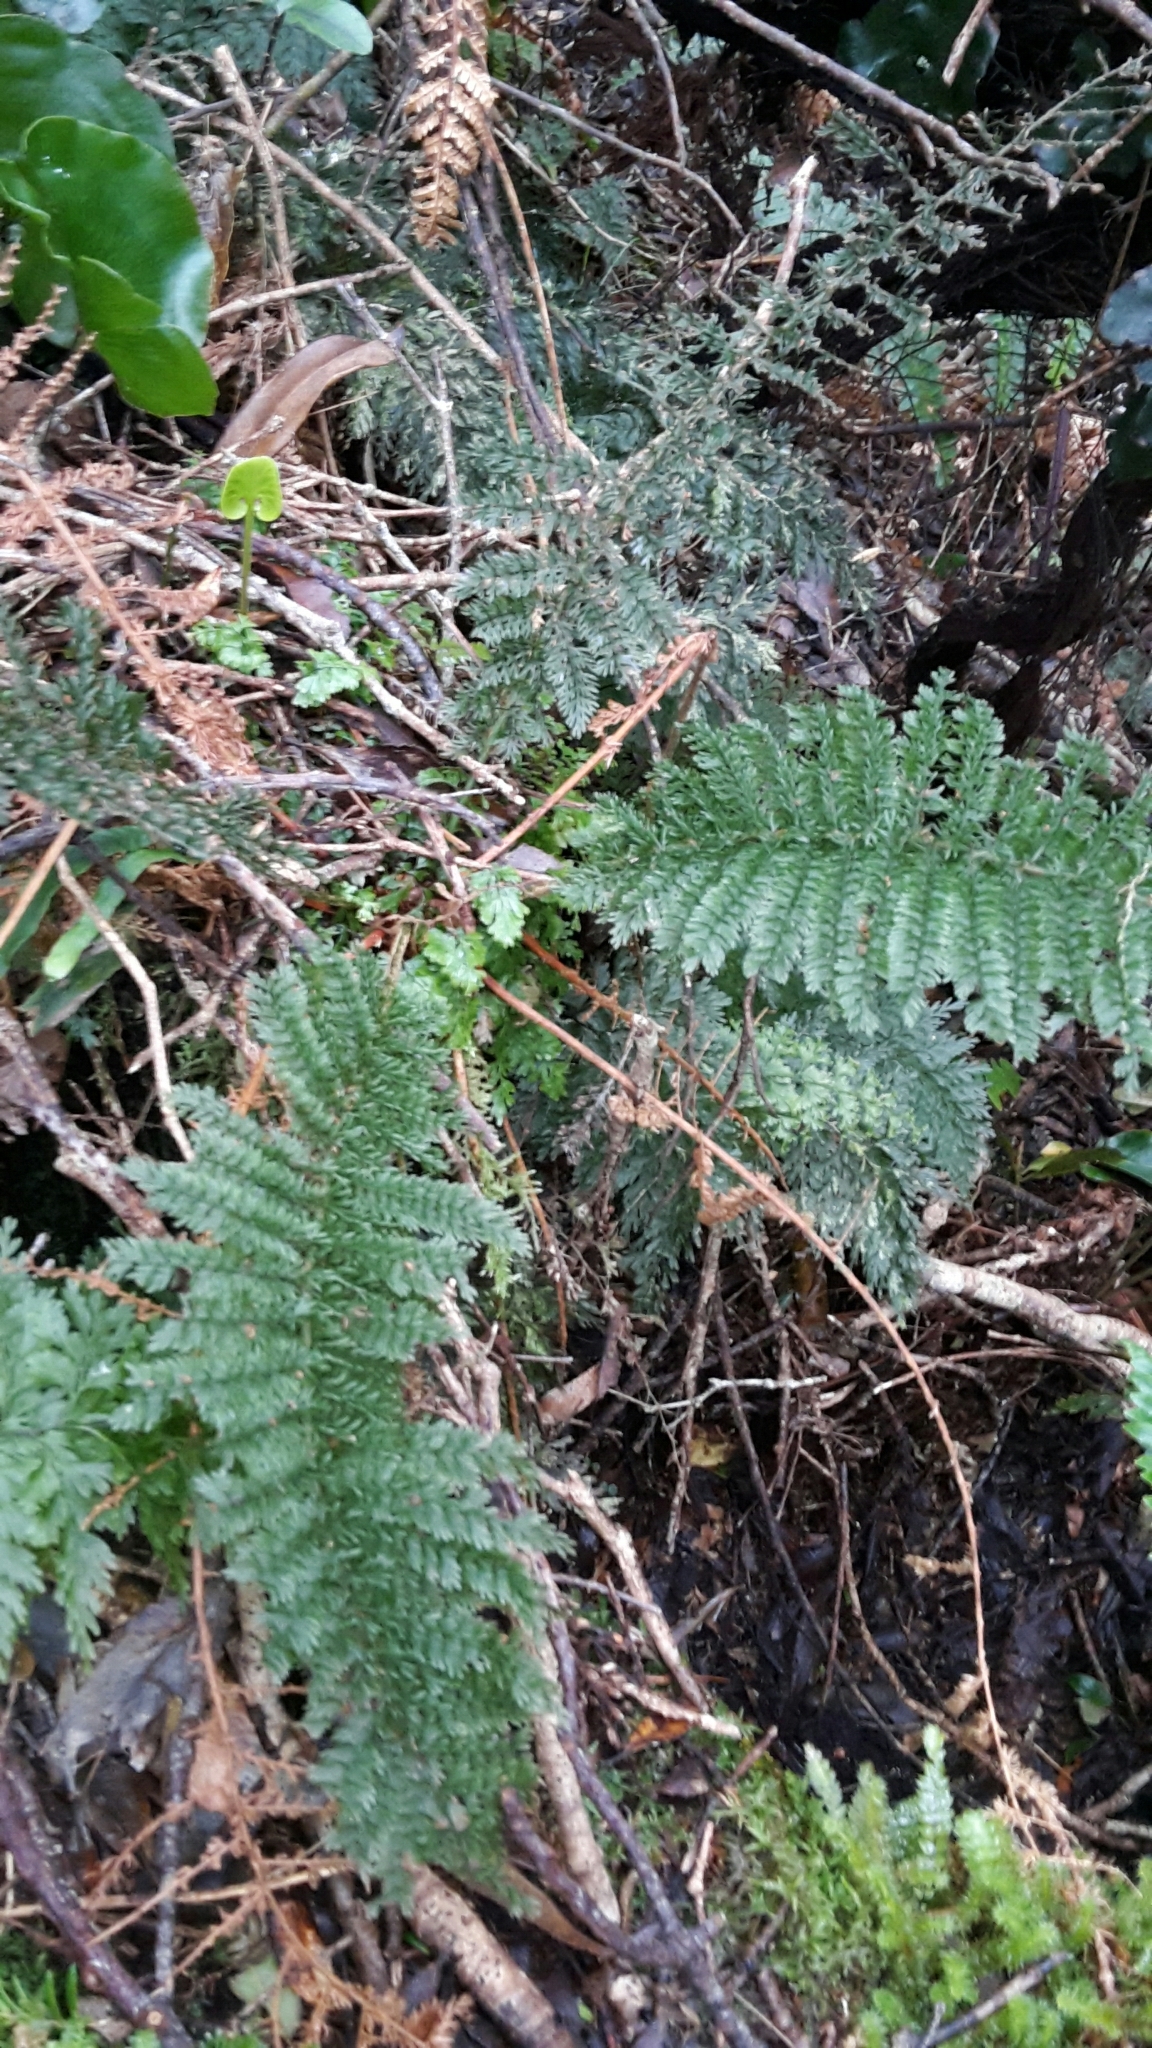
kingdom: Plantae
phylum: Tracheophyta
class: Polypodiopsida
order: Osmundales
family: Osmundaceae
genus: Leptopteris
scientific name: Leptopteris superba
